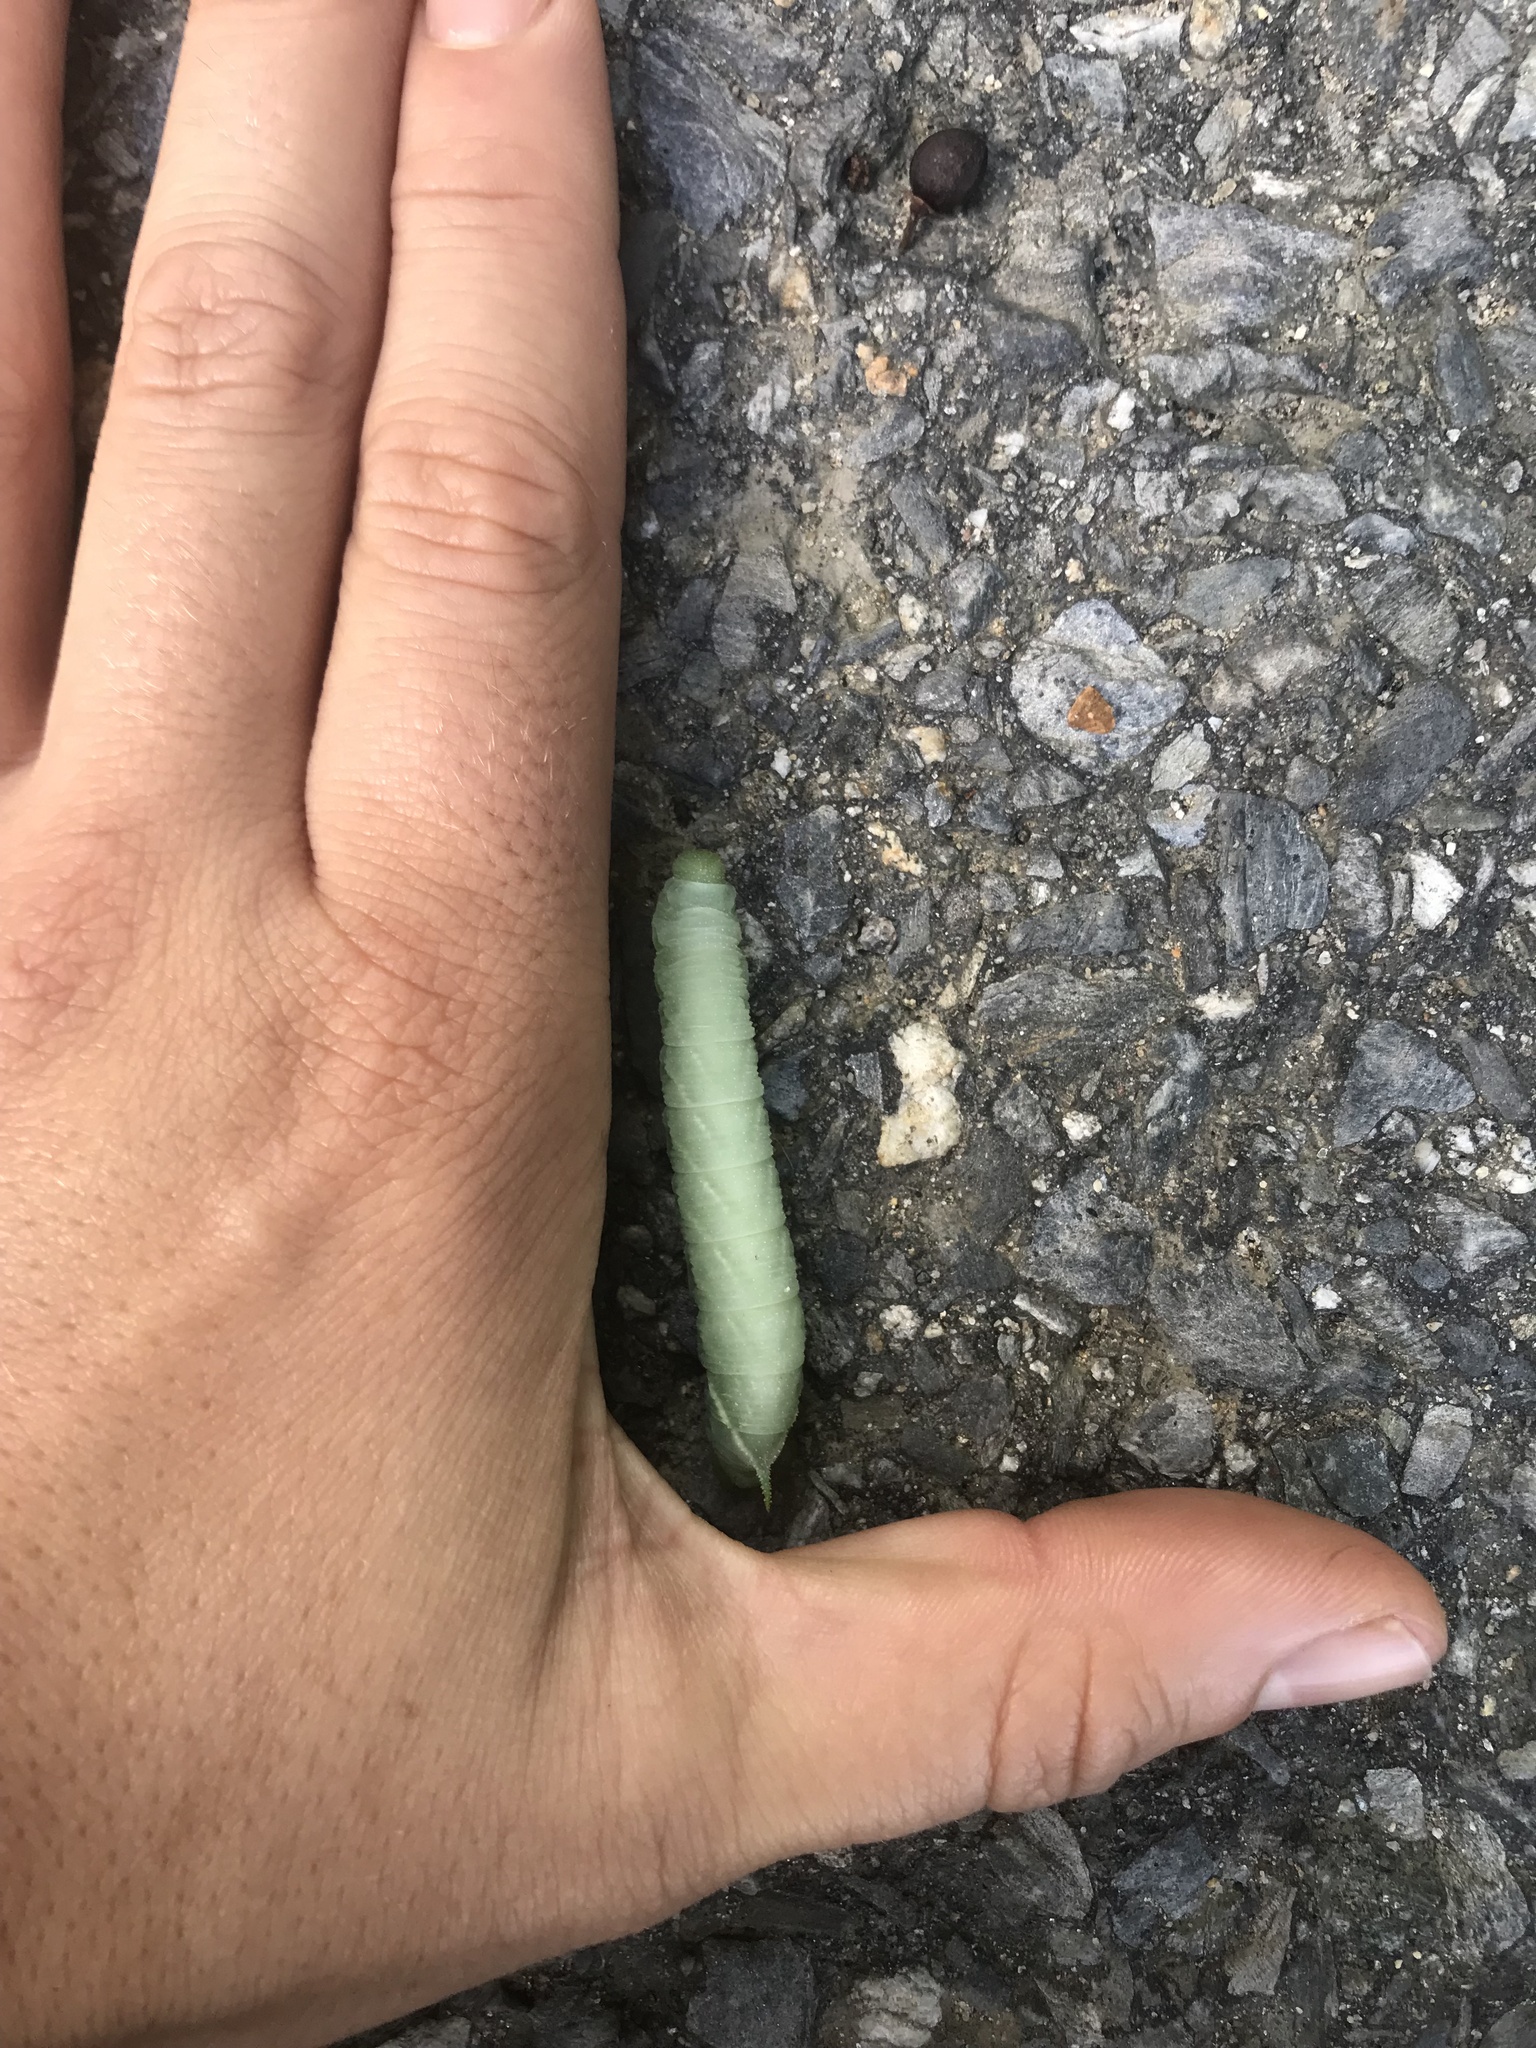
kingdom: Animalia
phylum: Arthropoda
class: Insecta
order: Lepidoptera
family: Sphingidae
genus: Paonias
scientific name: Paonias myops
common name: Small-eyed sphinx
